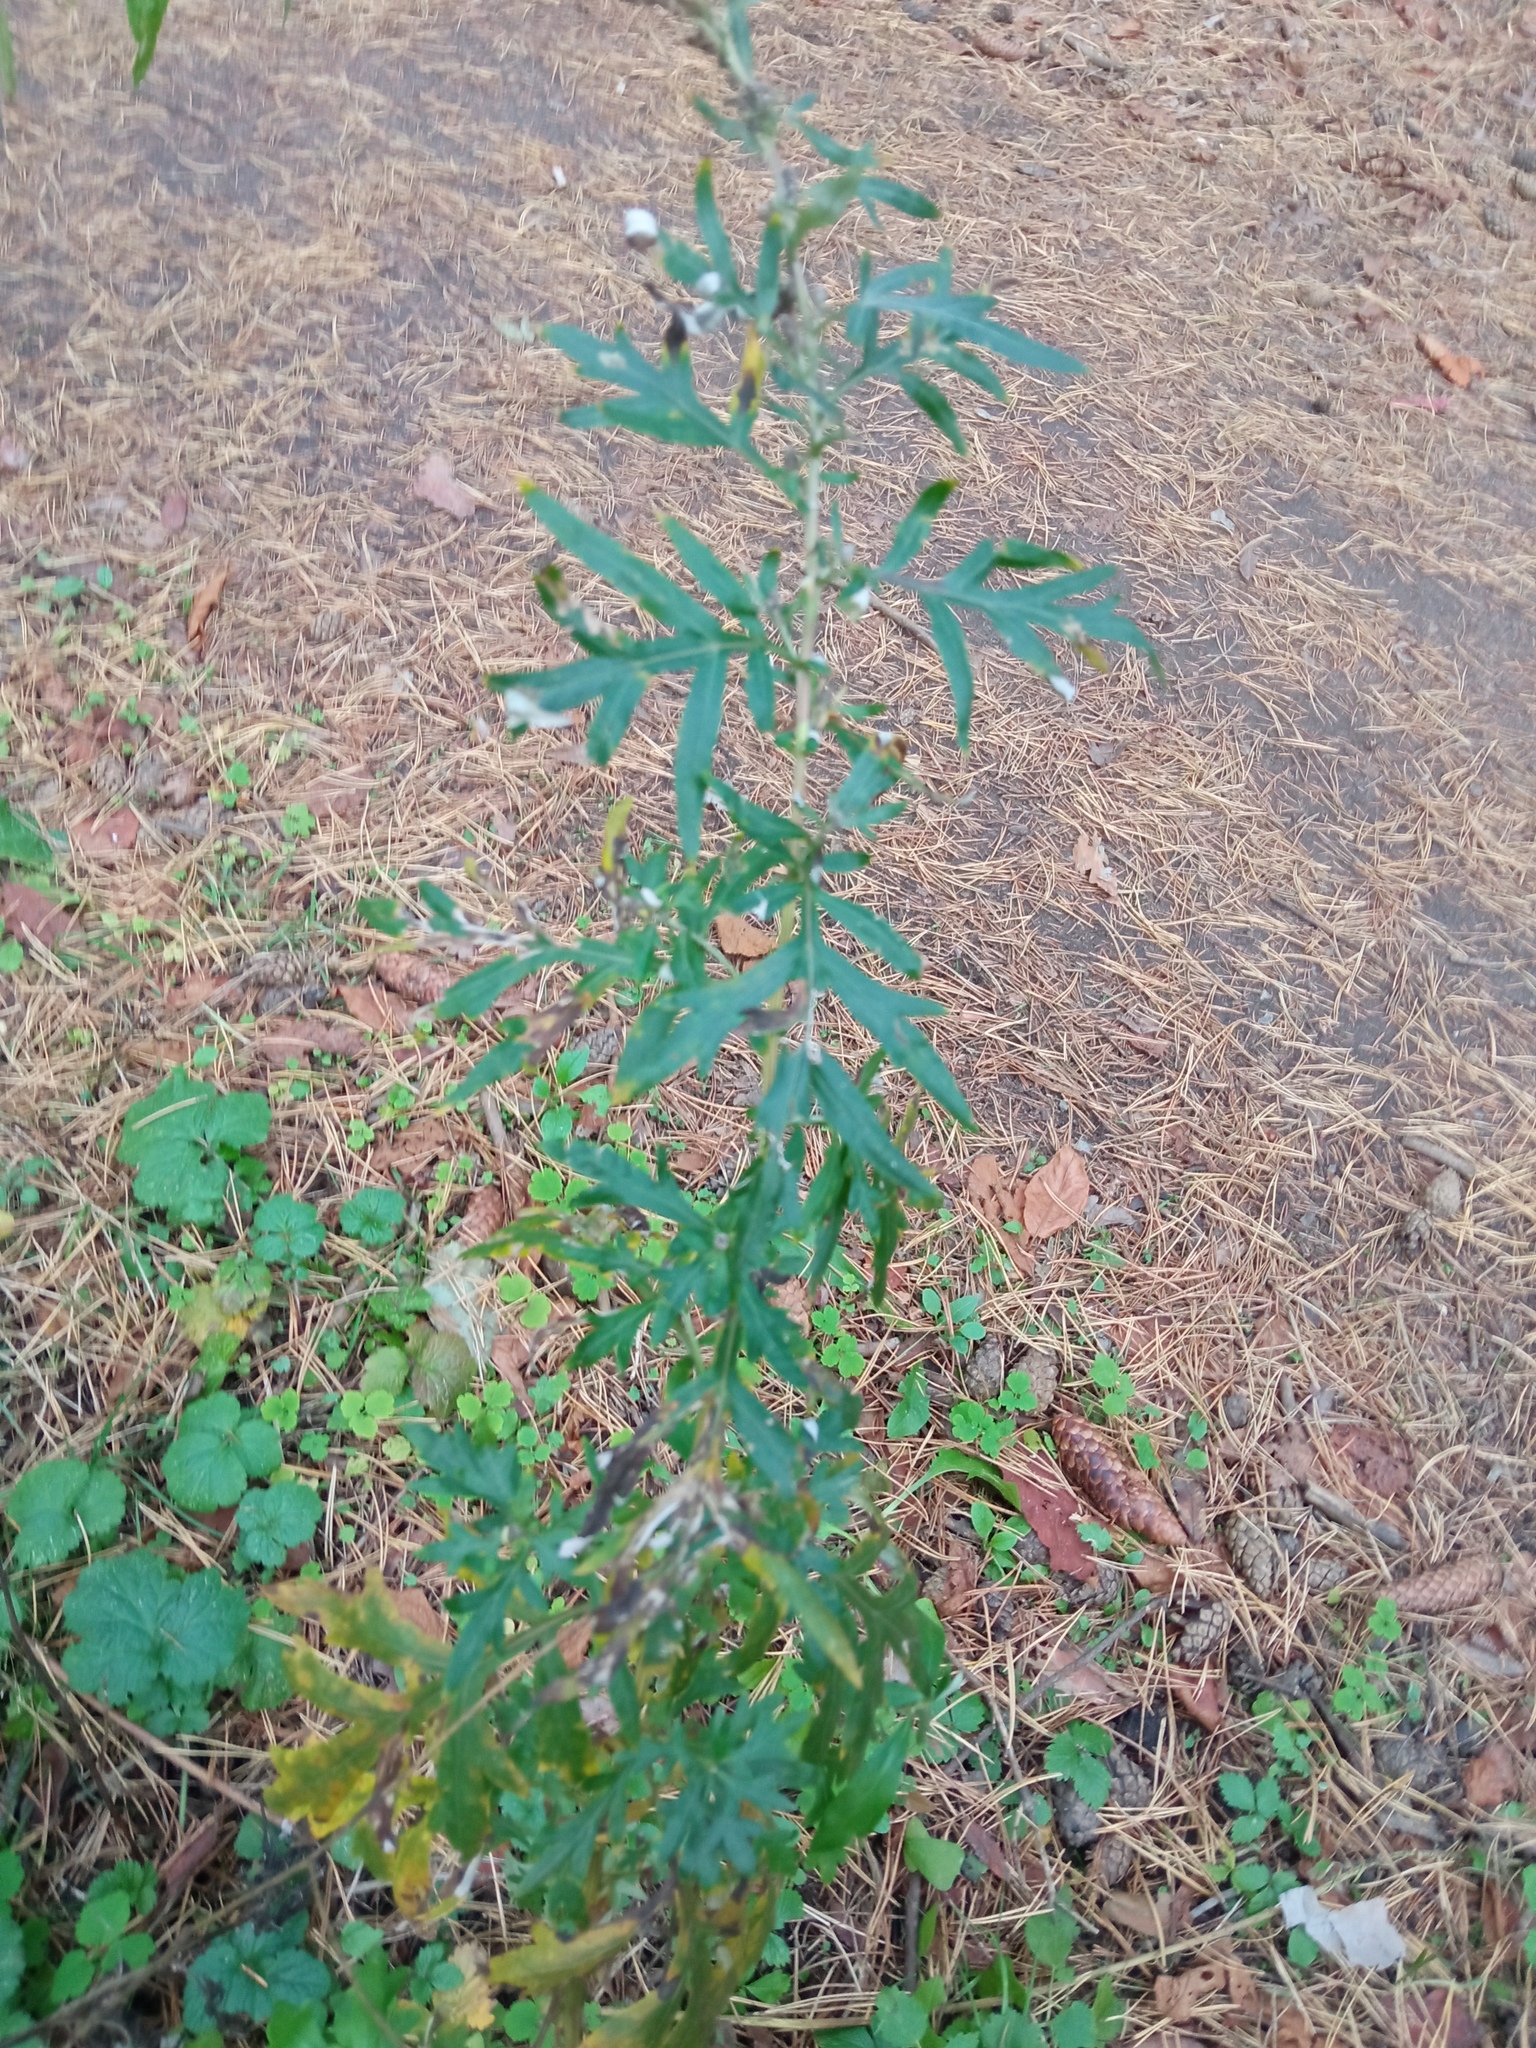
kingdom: Plantae
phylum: Tracheophyta
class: Magnoliopsida
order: Asterales
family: Asteraceae
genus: Artemisia
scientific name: Artemisia vulgaris
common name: Mugwort
